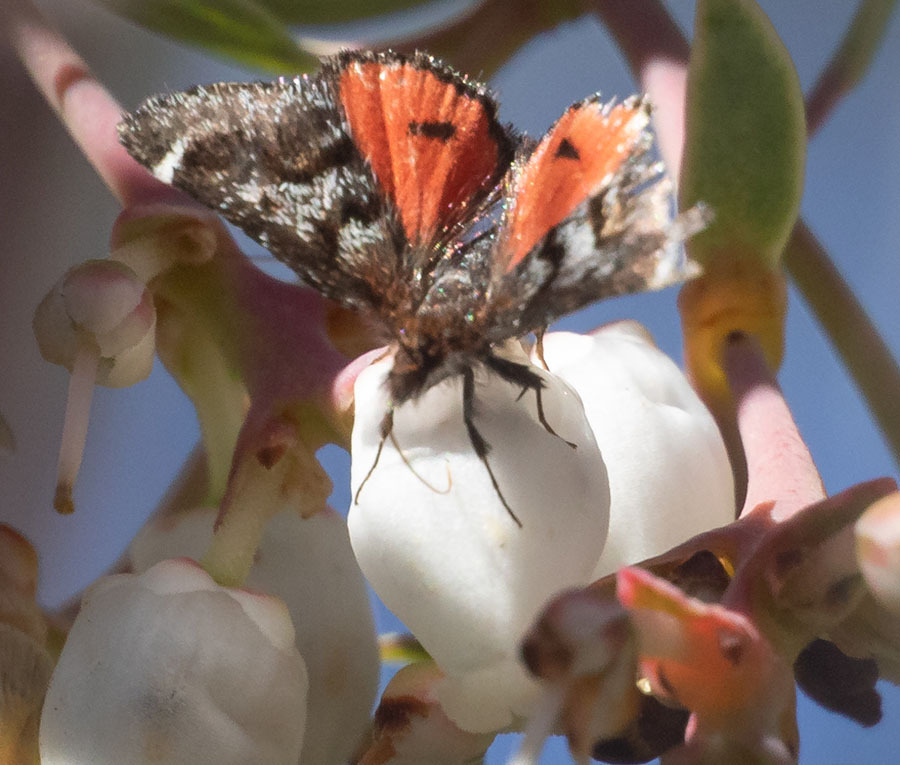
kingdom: Animalia
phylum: Arthropoda
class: Insecta
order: Lepidoptera
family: Crambidae
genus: Pyrausta
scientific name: Pyrausta dapalis
